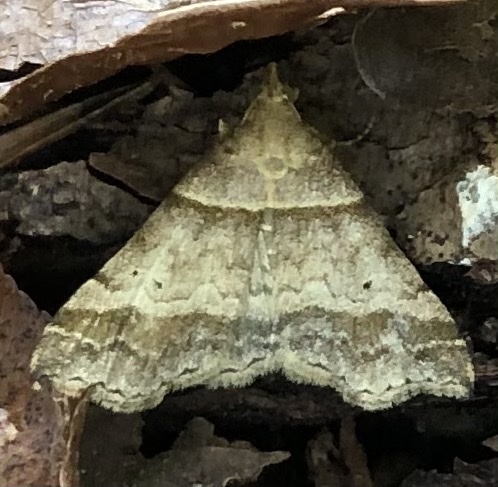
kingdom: Animalia
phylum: Arthropoda
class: Insecta
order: Lepidoptera
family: Erebidae
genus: Phaeolita
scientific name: Phaeolita pyramusalis
